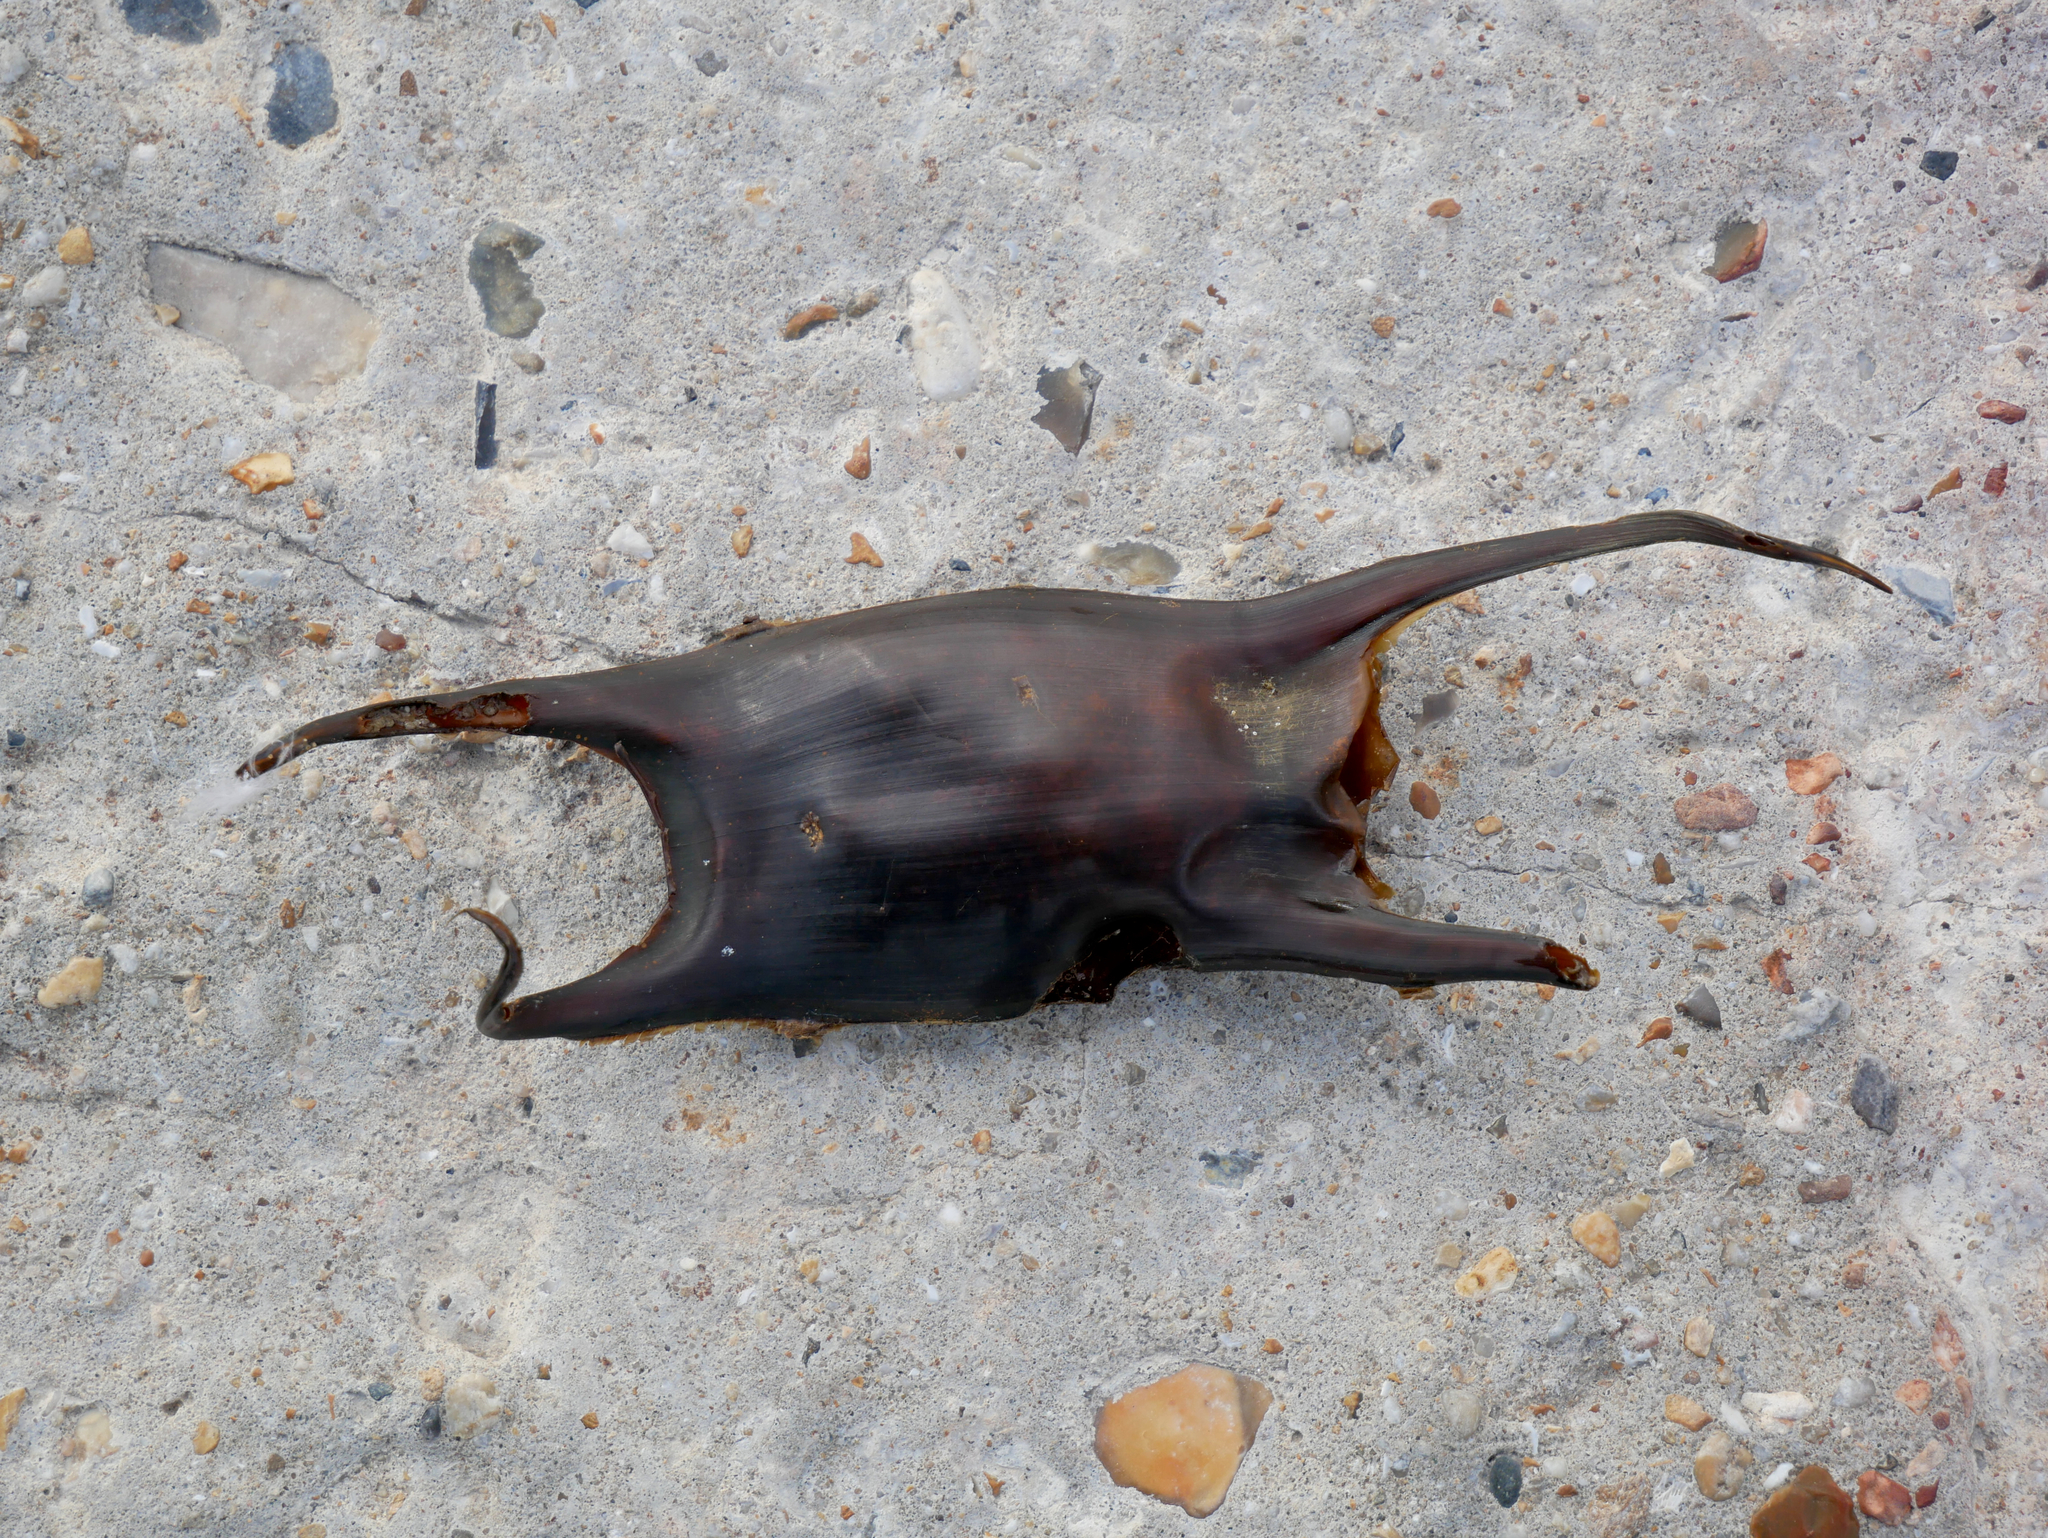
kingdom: Animalia
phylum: Chordata
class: Elasmobranchii
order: Rajiformes
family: Rajidae
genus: Raja
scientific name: Raja montagui
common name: Spotted ray
